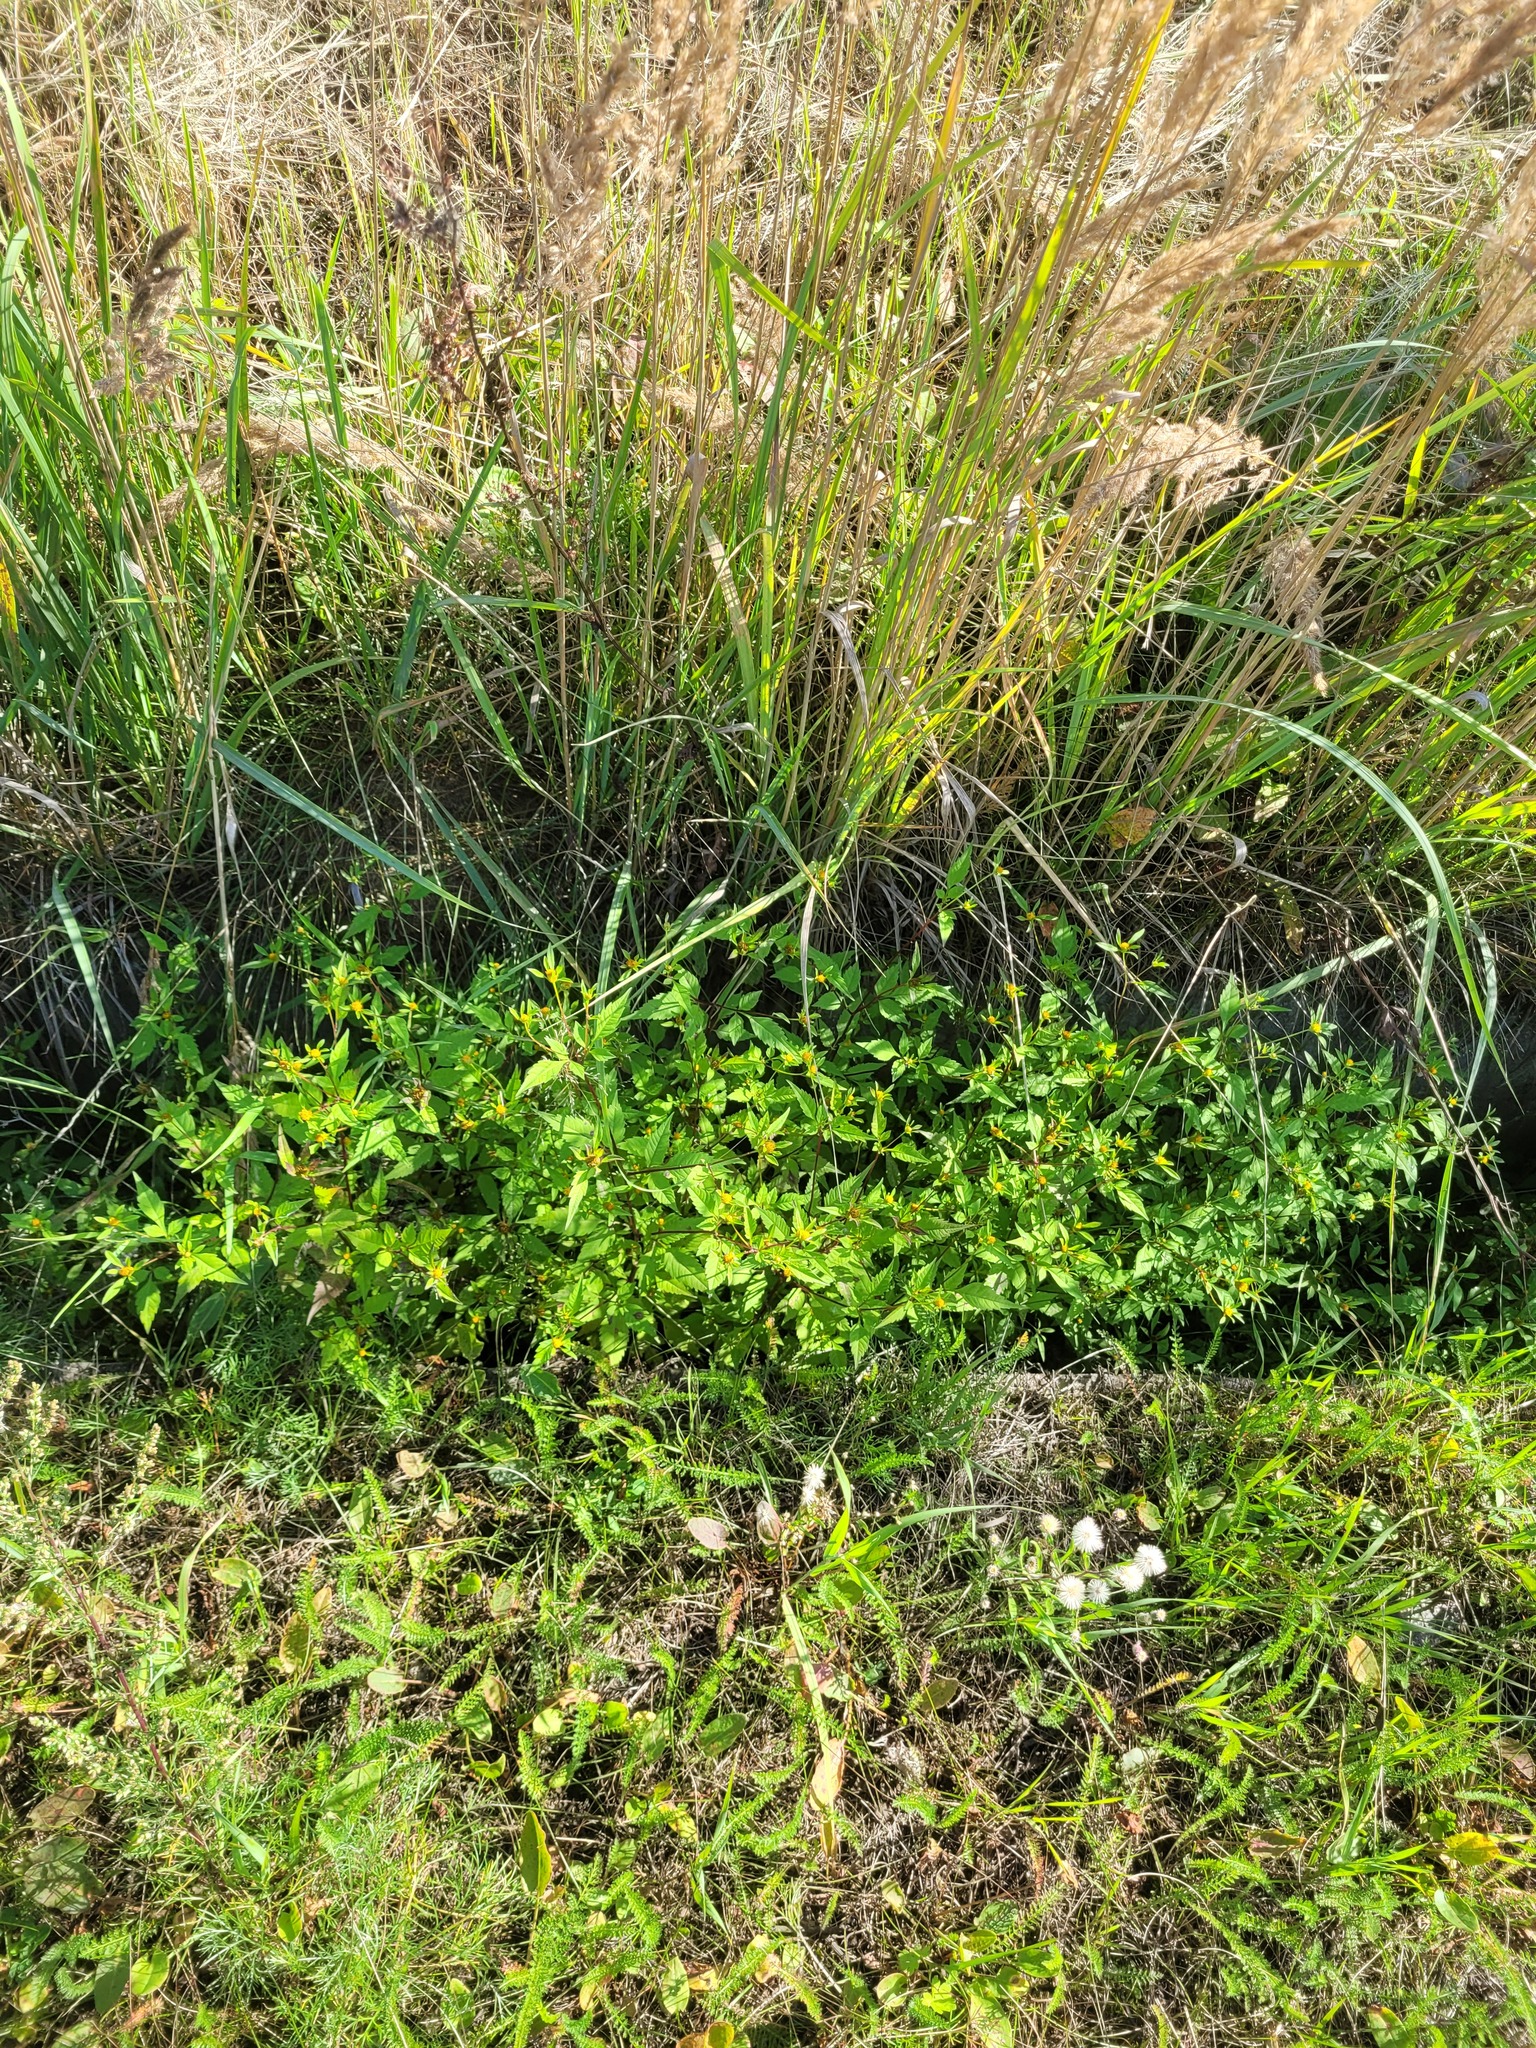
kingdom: Plantae
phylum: Tracheophyta
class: Magnoliopsida
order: Asterales
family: Asteraceae
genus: Bidens
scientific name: Bidens frondosa
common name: Beggarticks
